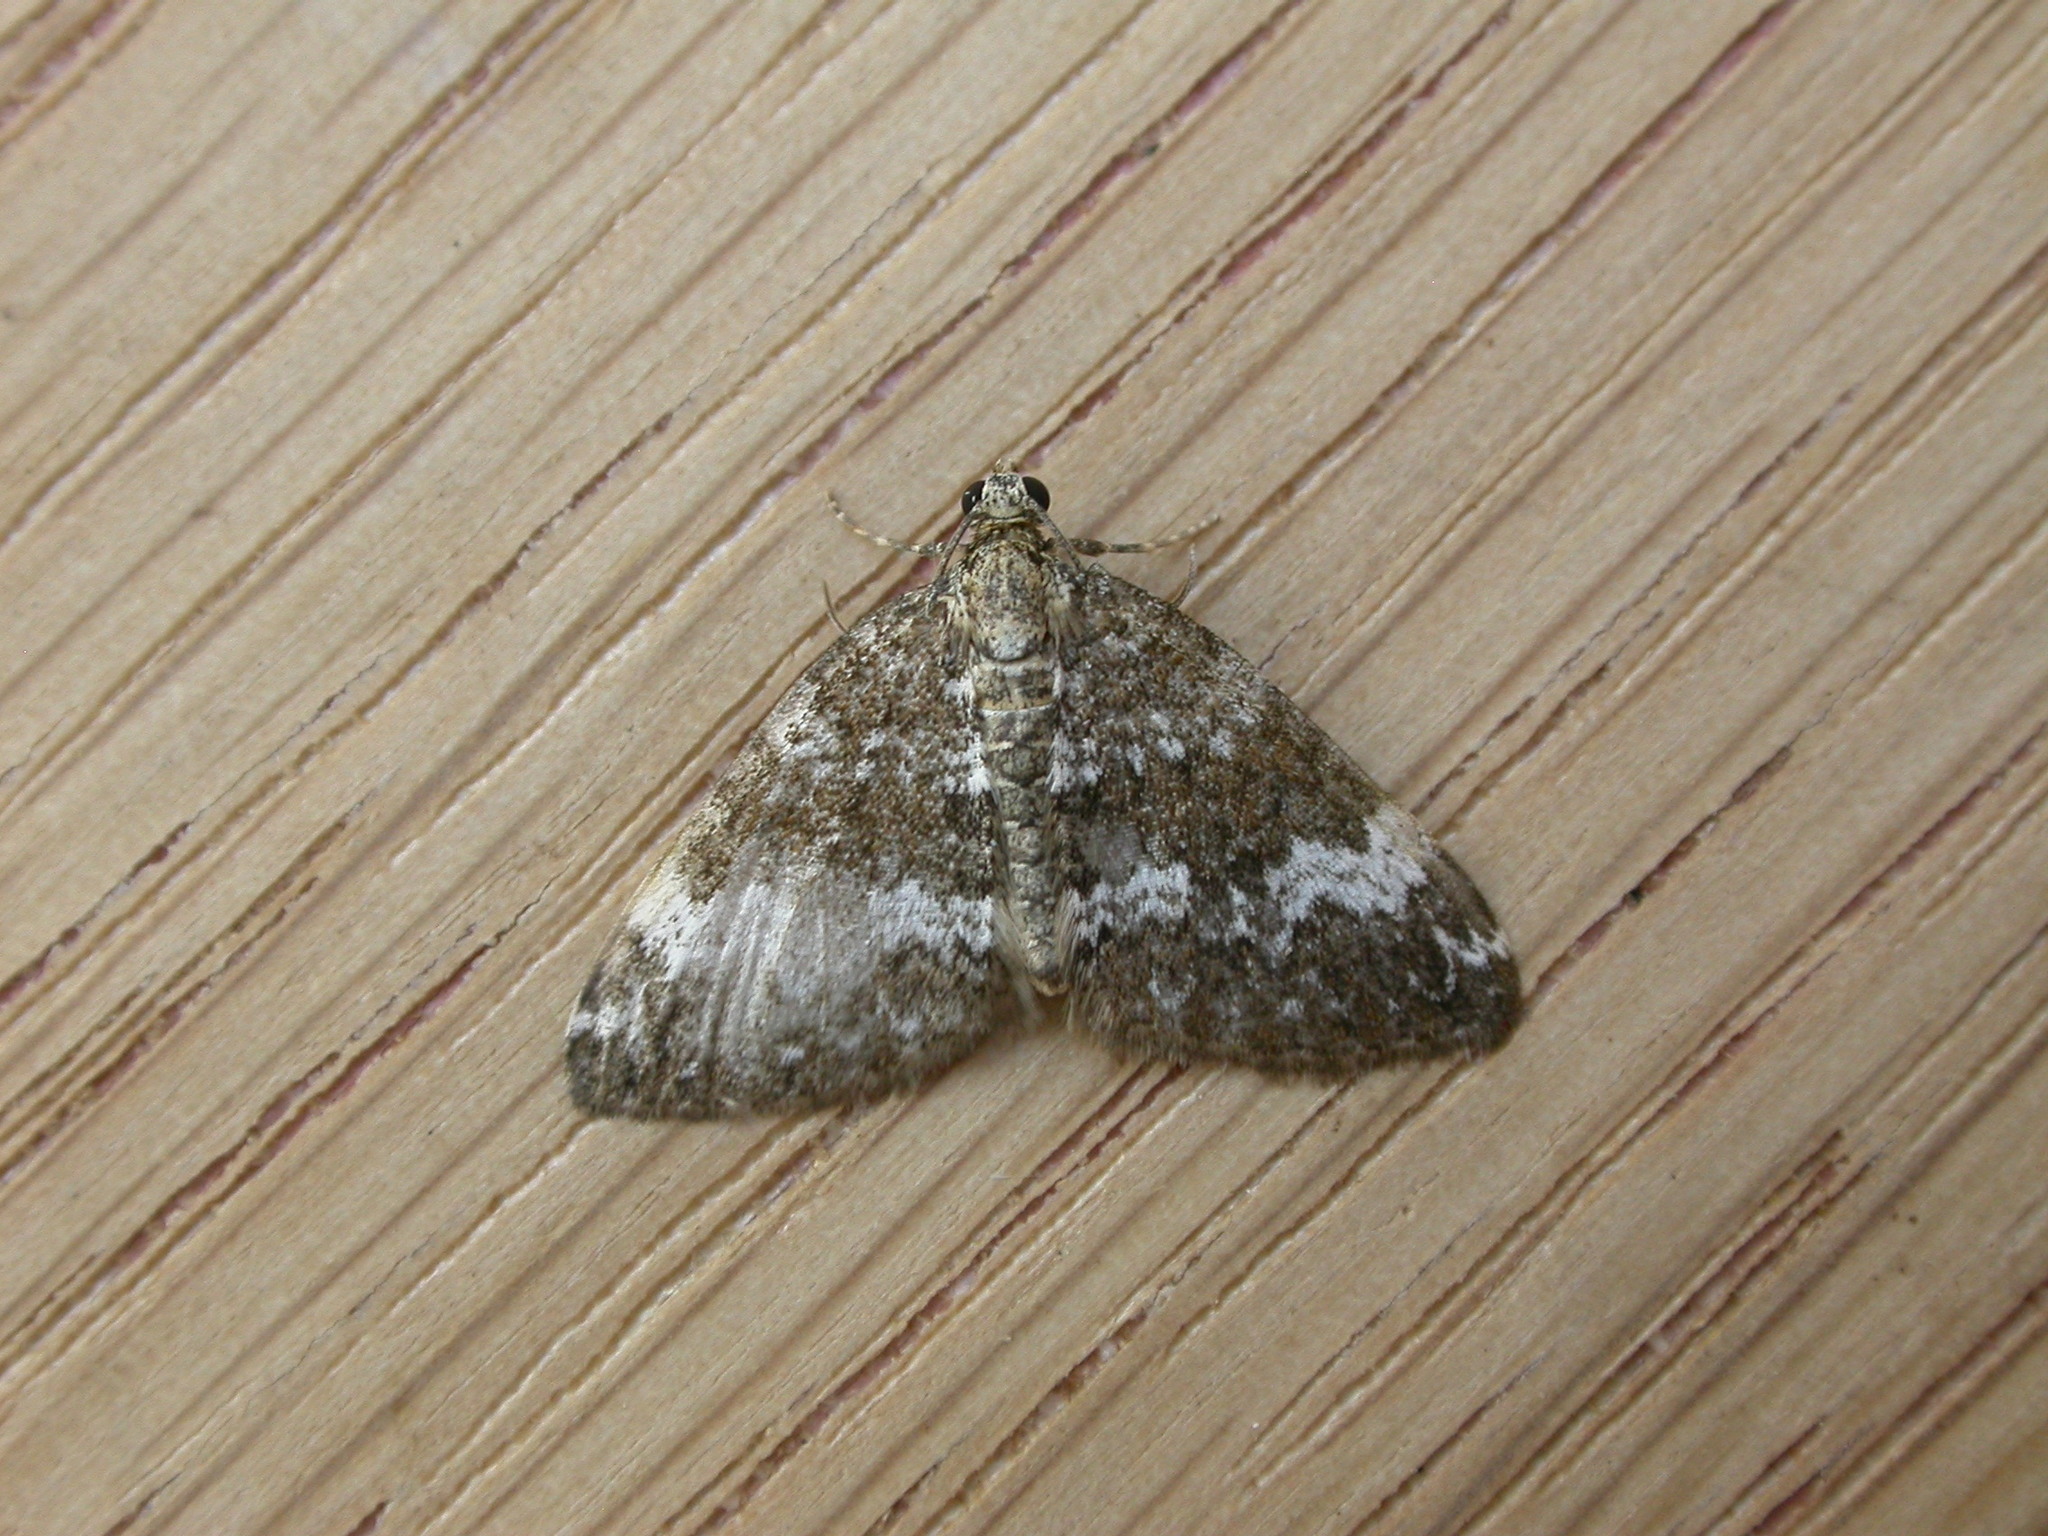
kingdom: Animalia
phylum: Arthropoda
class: Insecta
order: Lepidoptera
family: Geometridae
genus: Perizoma
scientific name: Perizoma alchemillata
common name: Small rivulet
